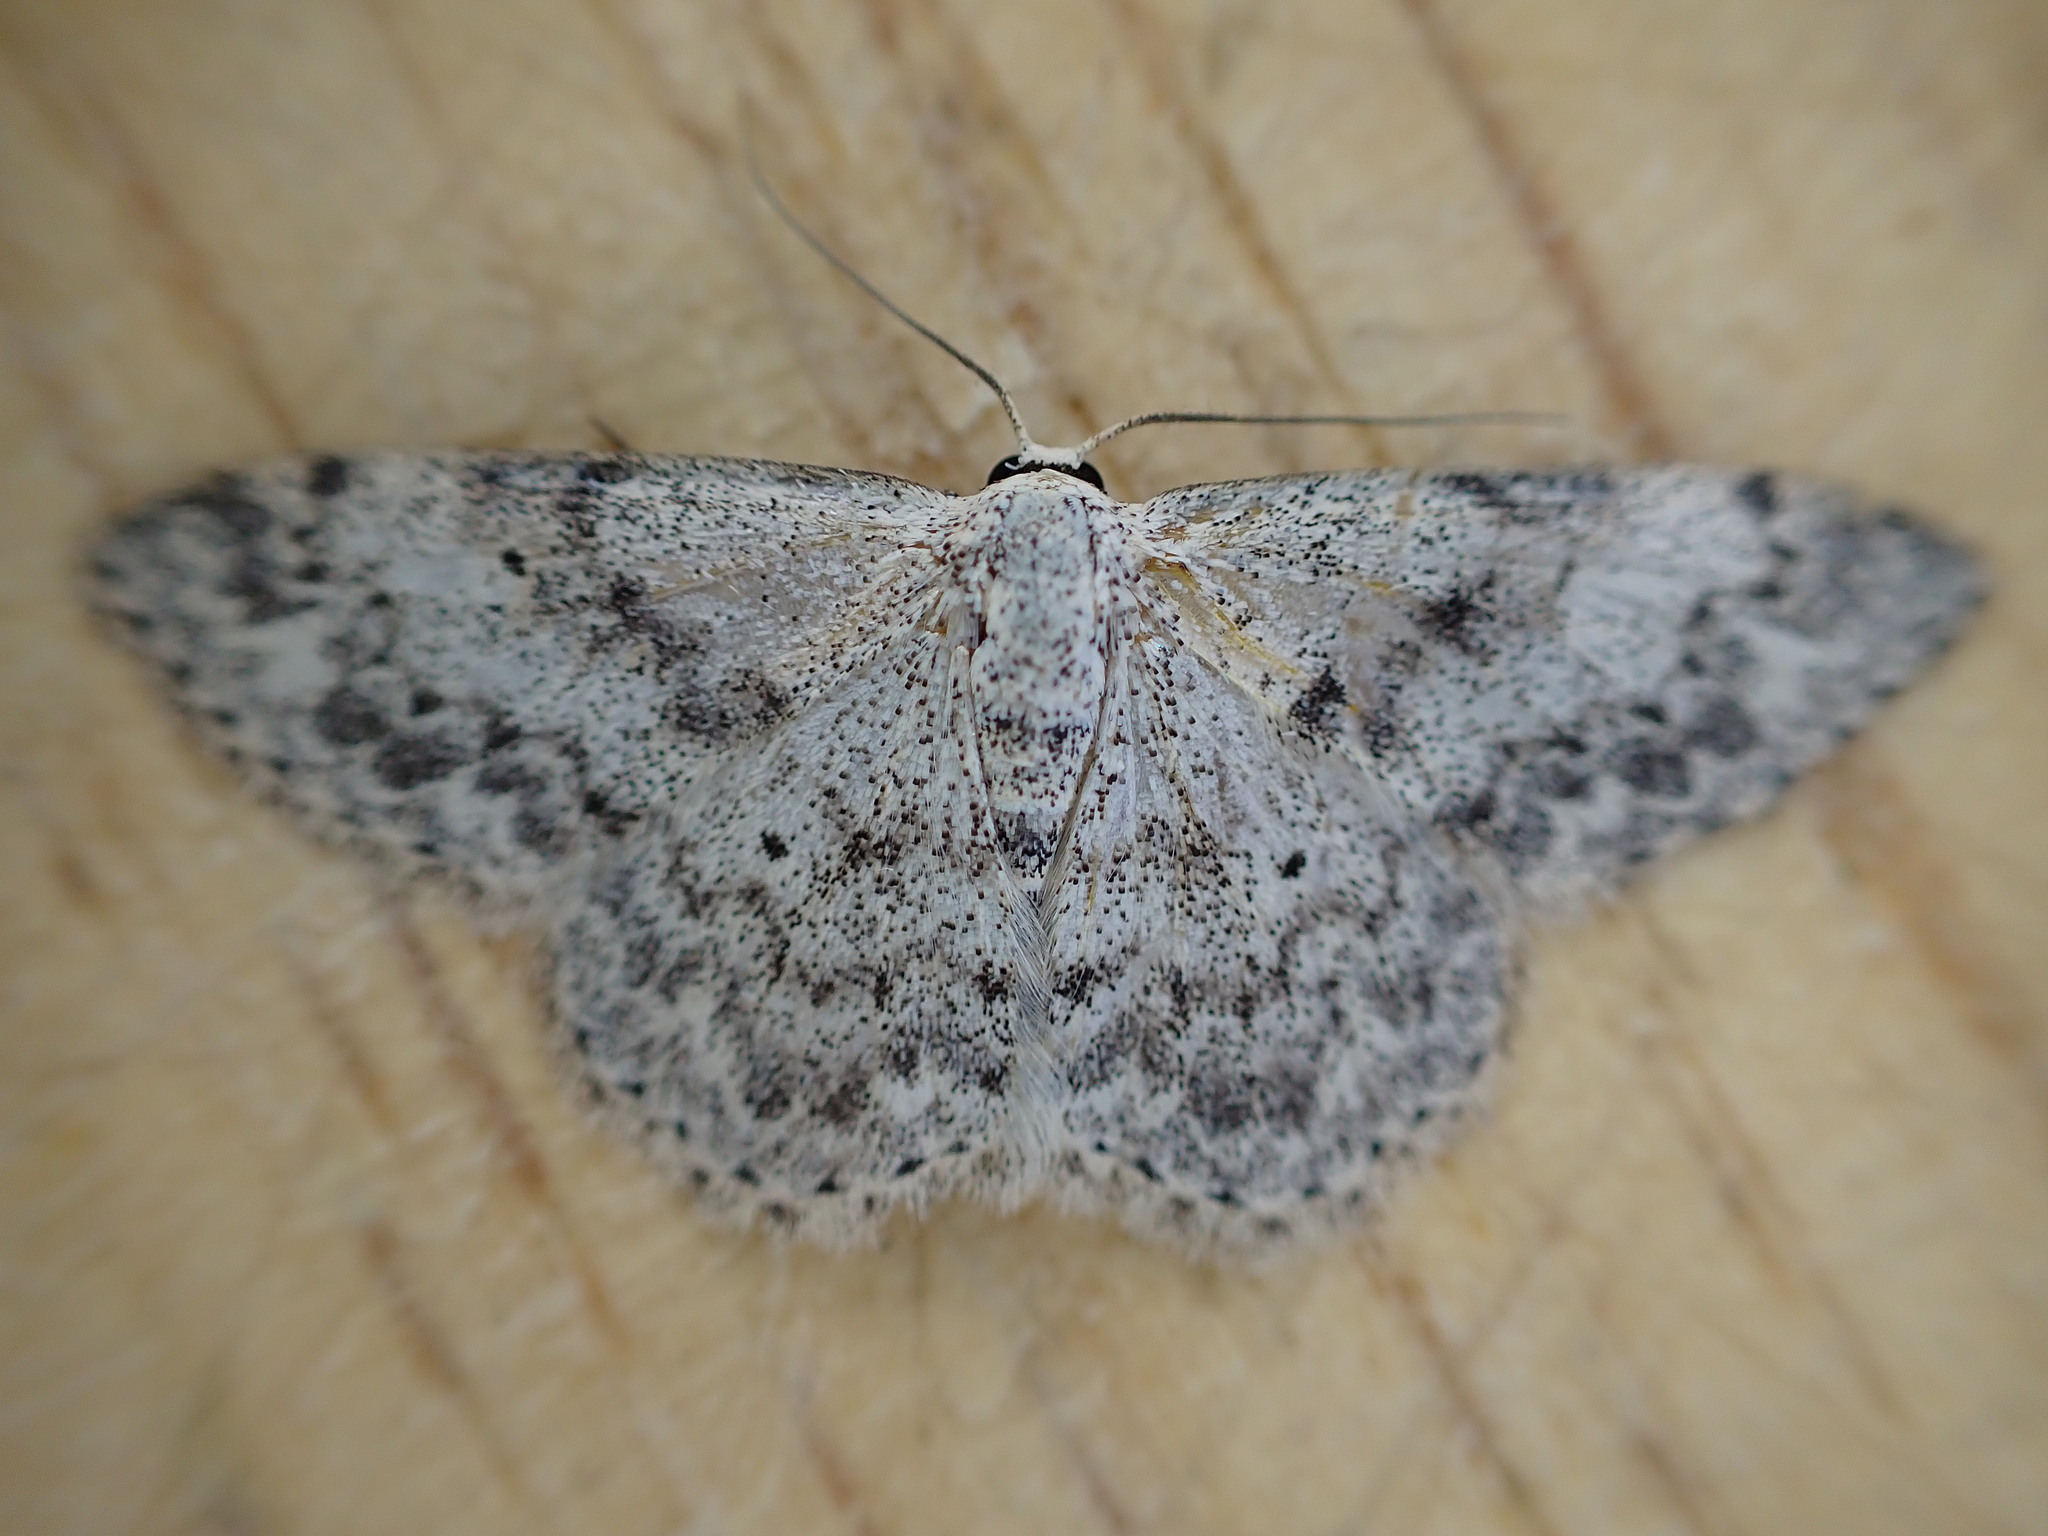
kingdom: Animalia
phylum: Arthropoda
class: Insecta
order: Lepidoptera
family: Geometridae
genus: Scopula
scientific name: Scopula marginepunctata
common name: Mullein wave
